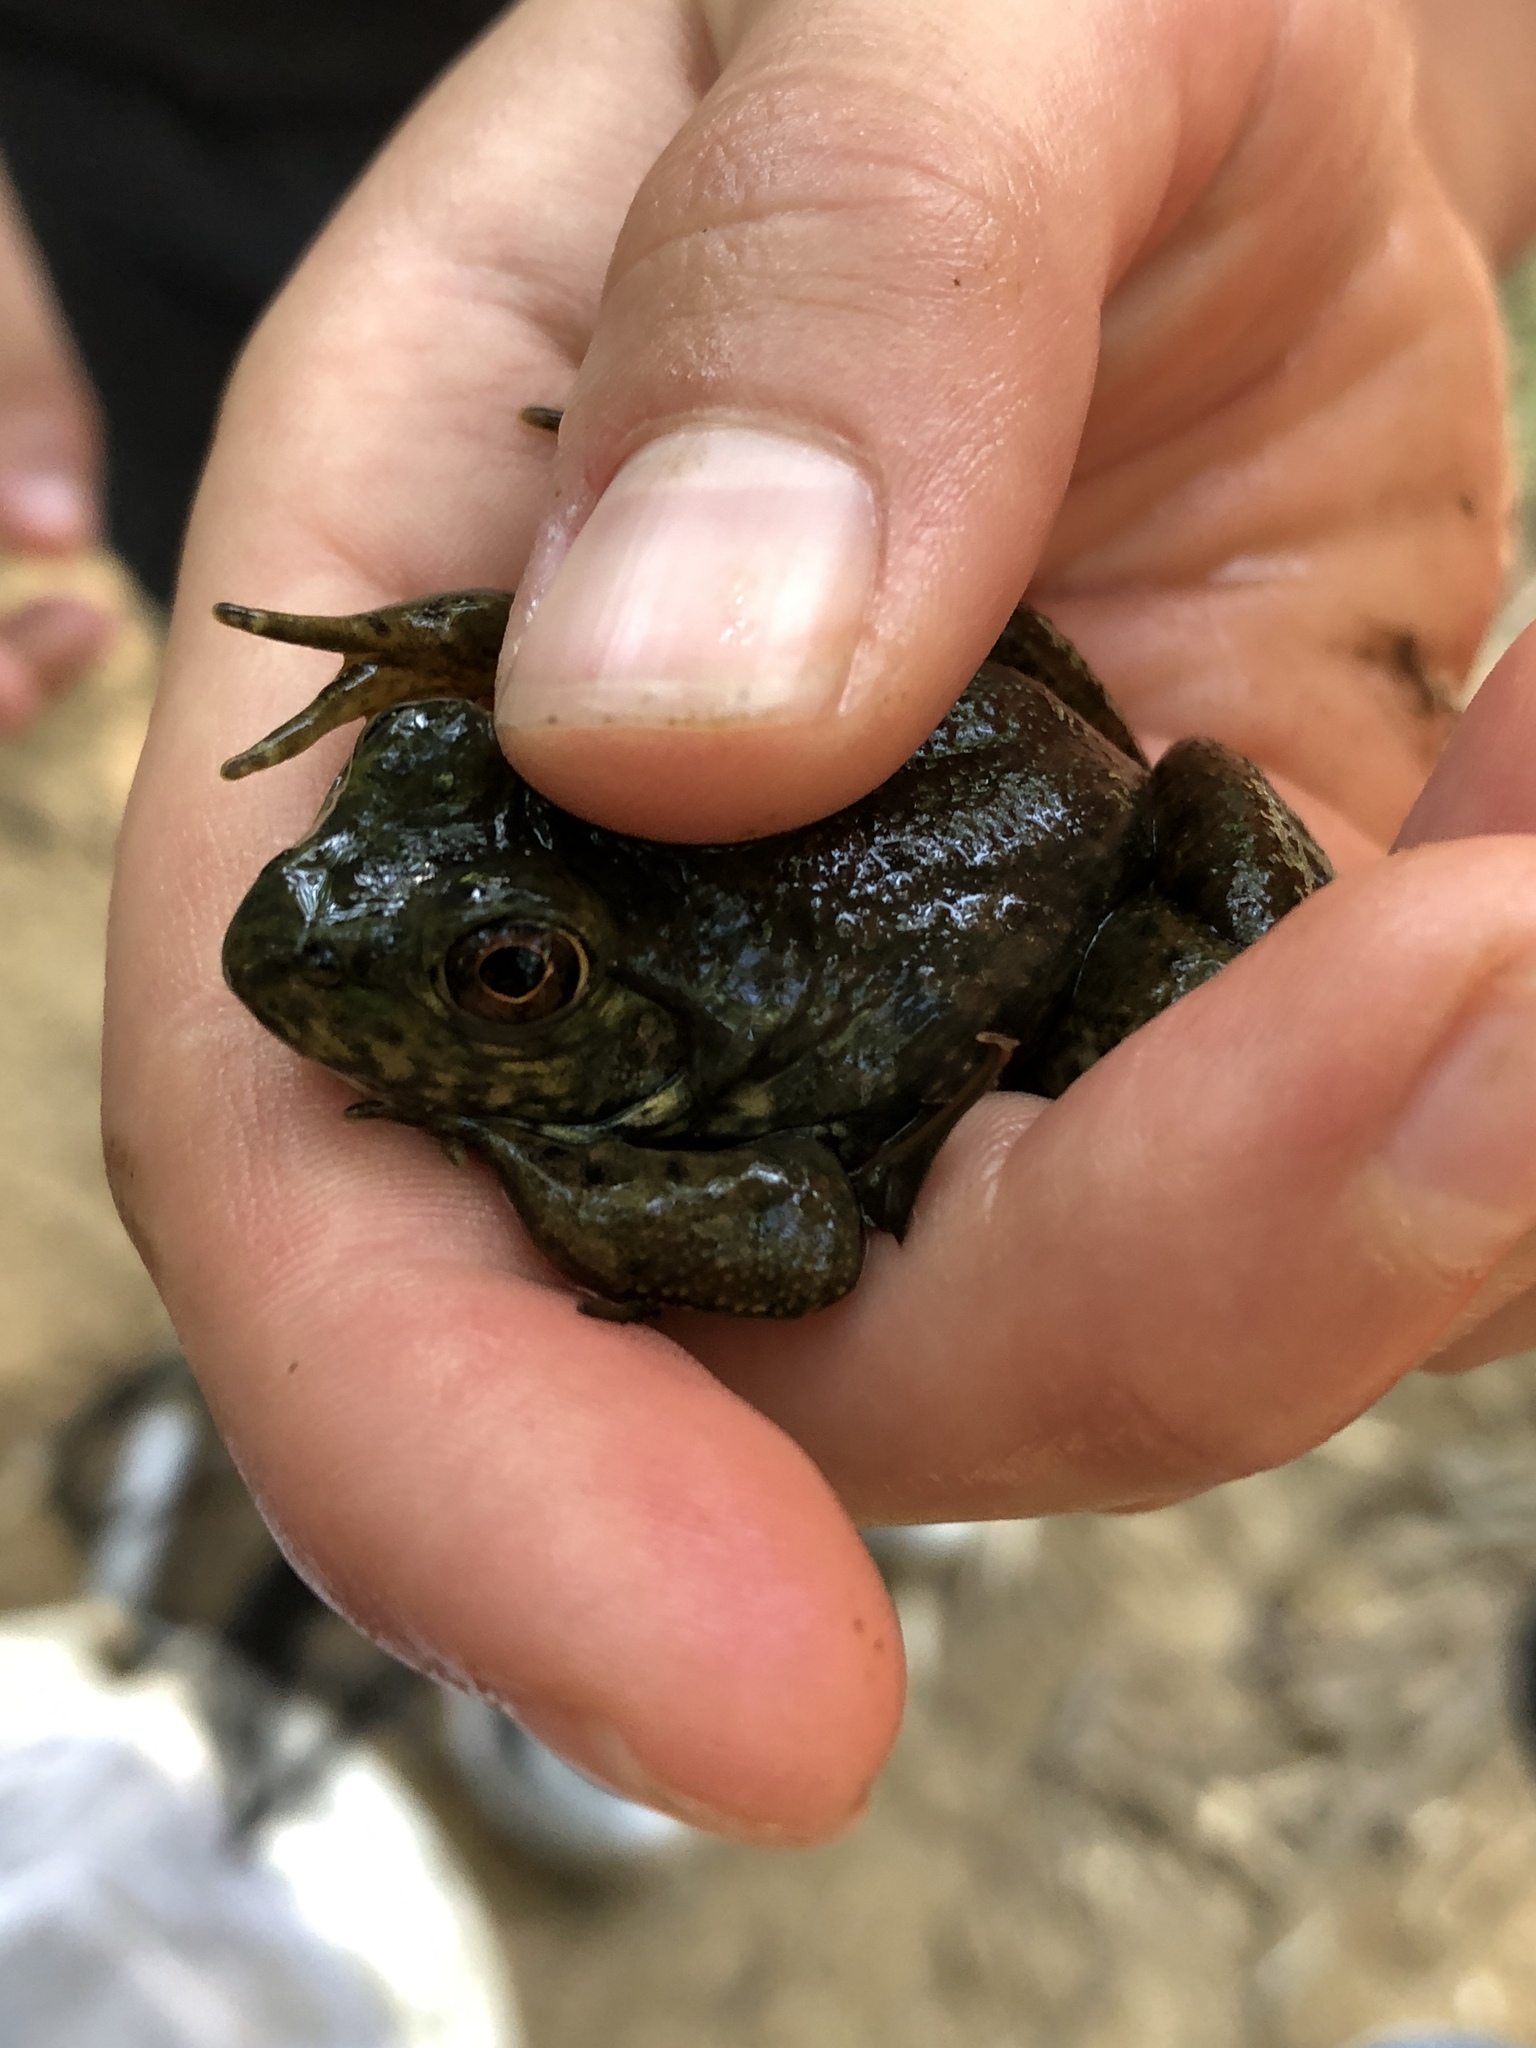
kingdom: Animalia
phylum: Chordata
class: Amphibia
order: Anura
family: Ranidae
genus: Lithobates
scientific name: Lithobates catesbeianus
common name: American bullfrog
